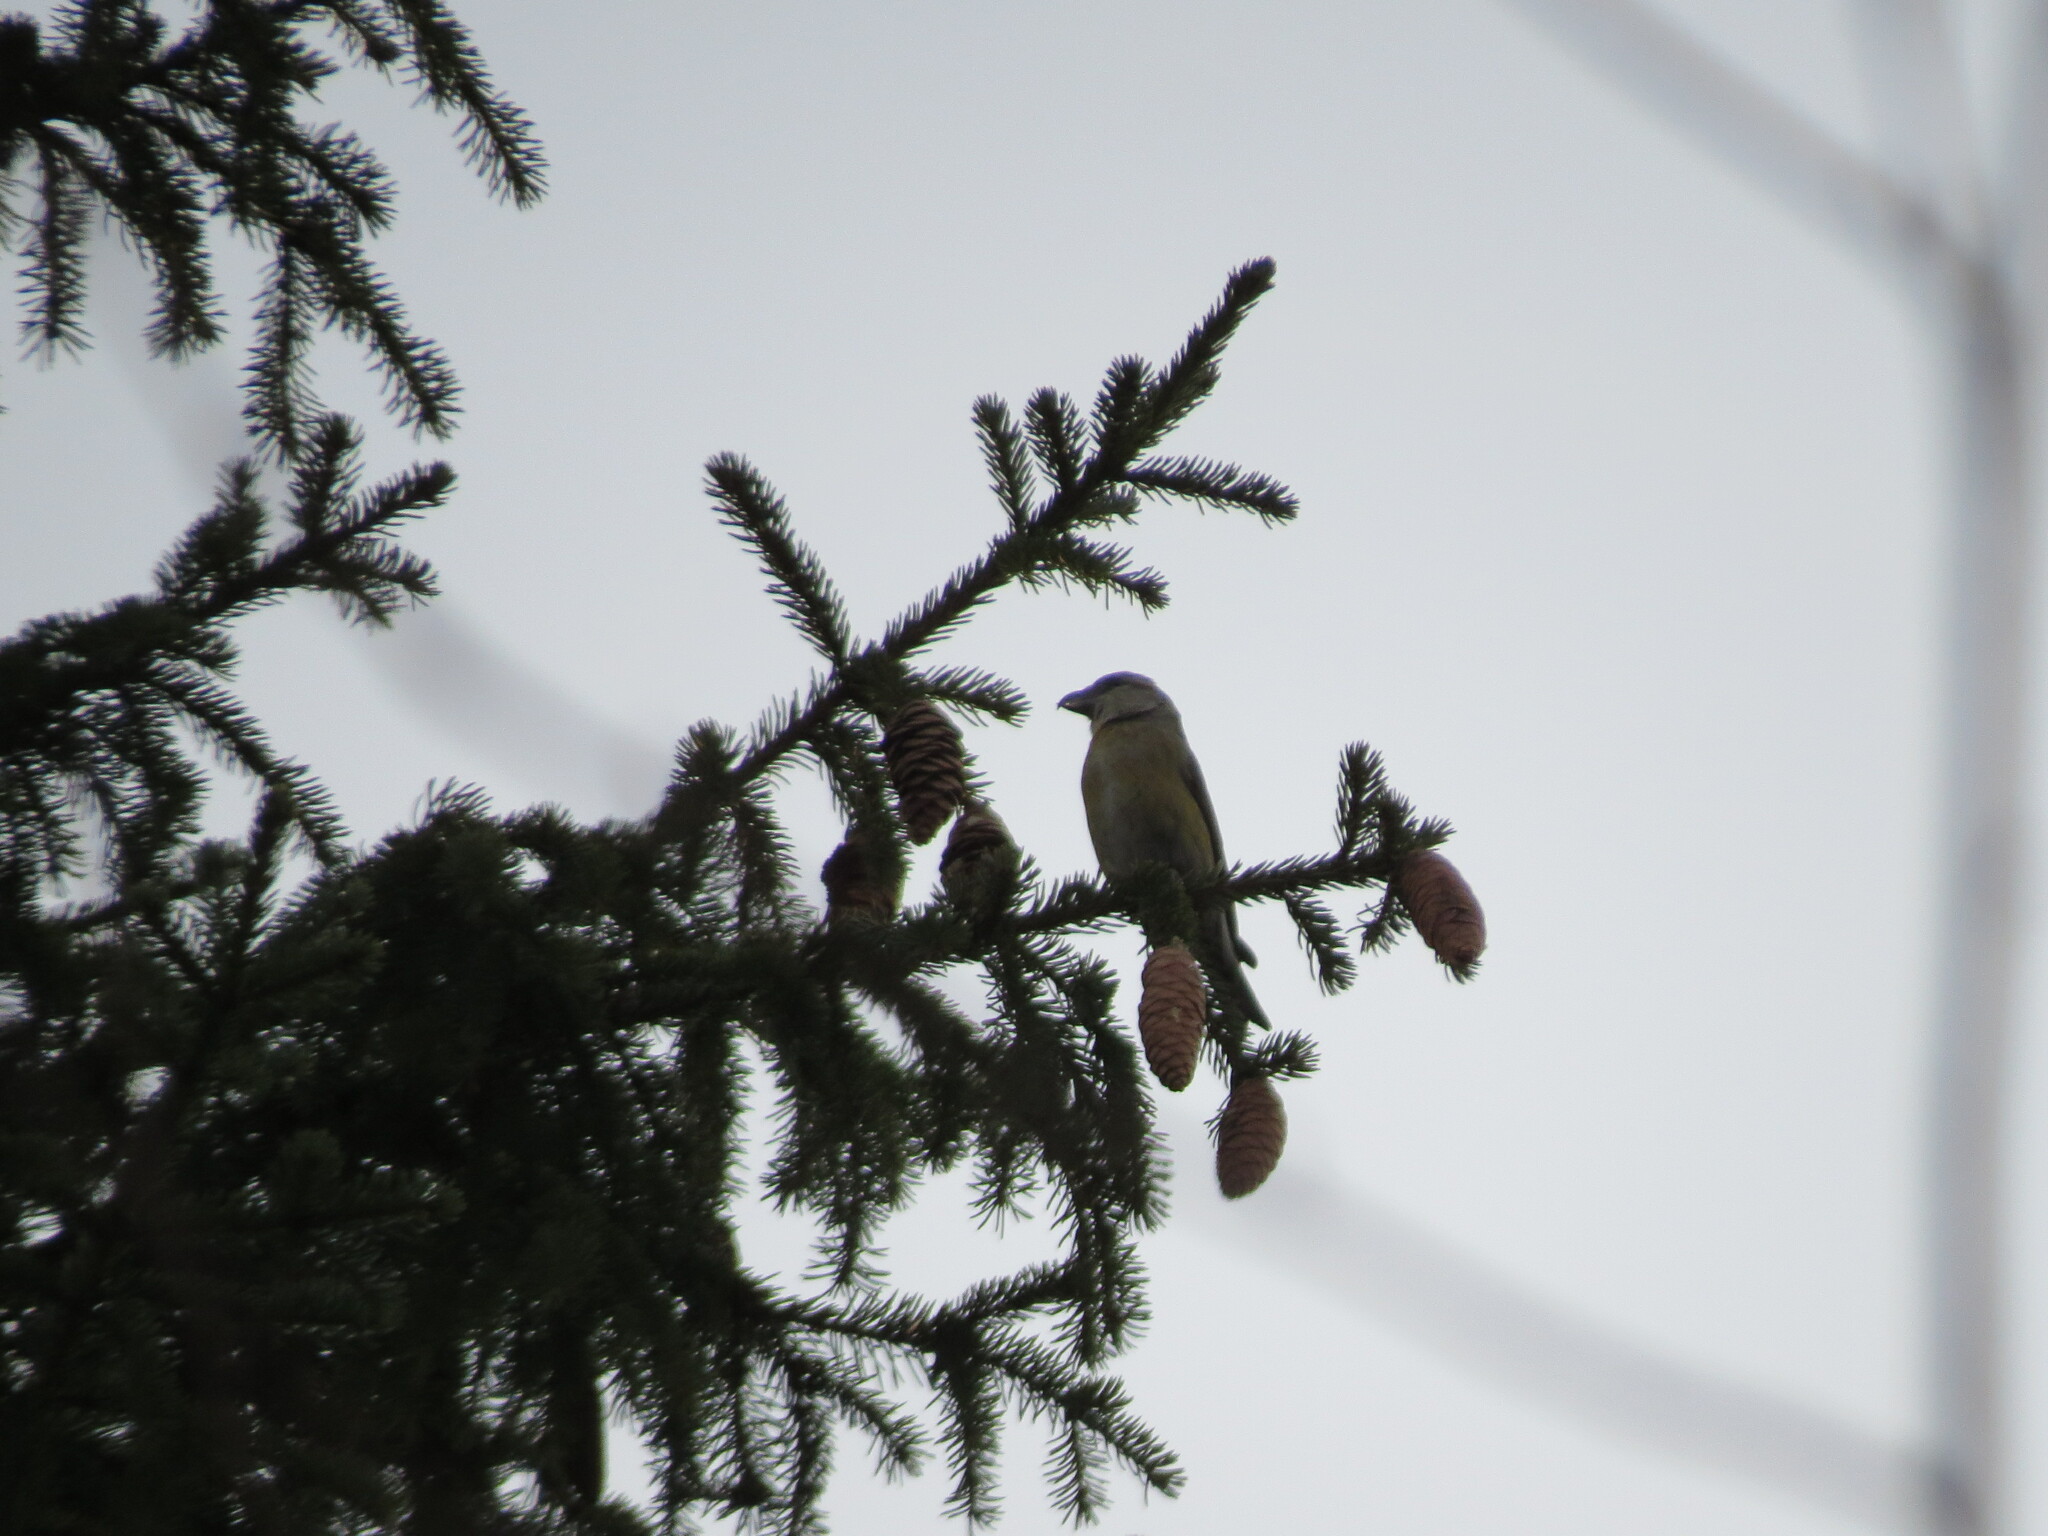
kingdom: Animalia
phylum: Chordata
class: Aves
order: Passeriformes
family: Fringillidae
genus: Loxia
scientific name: Loxia curvirostra
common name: Red crossbill
